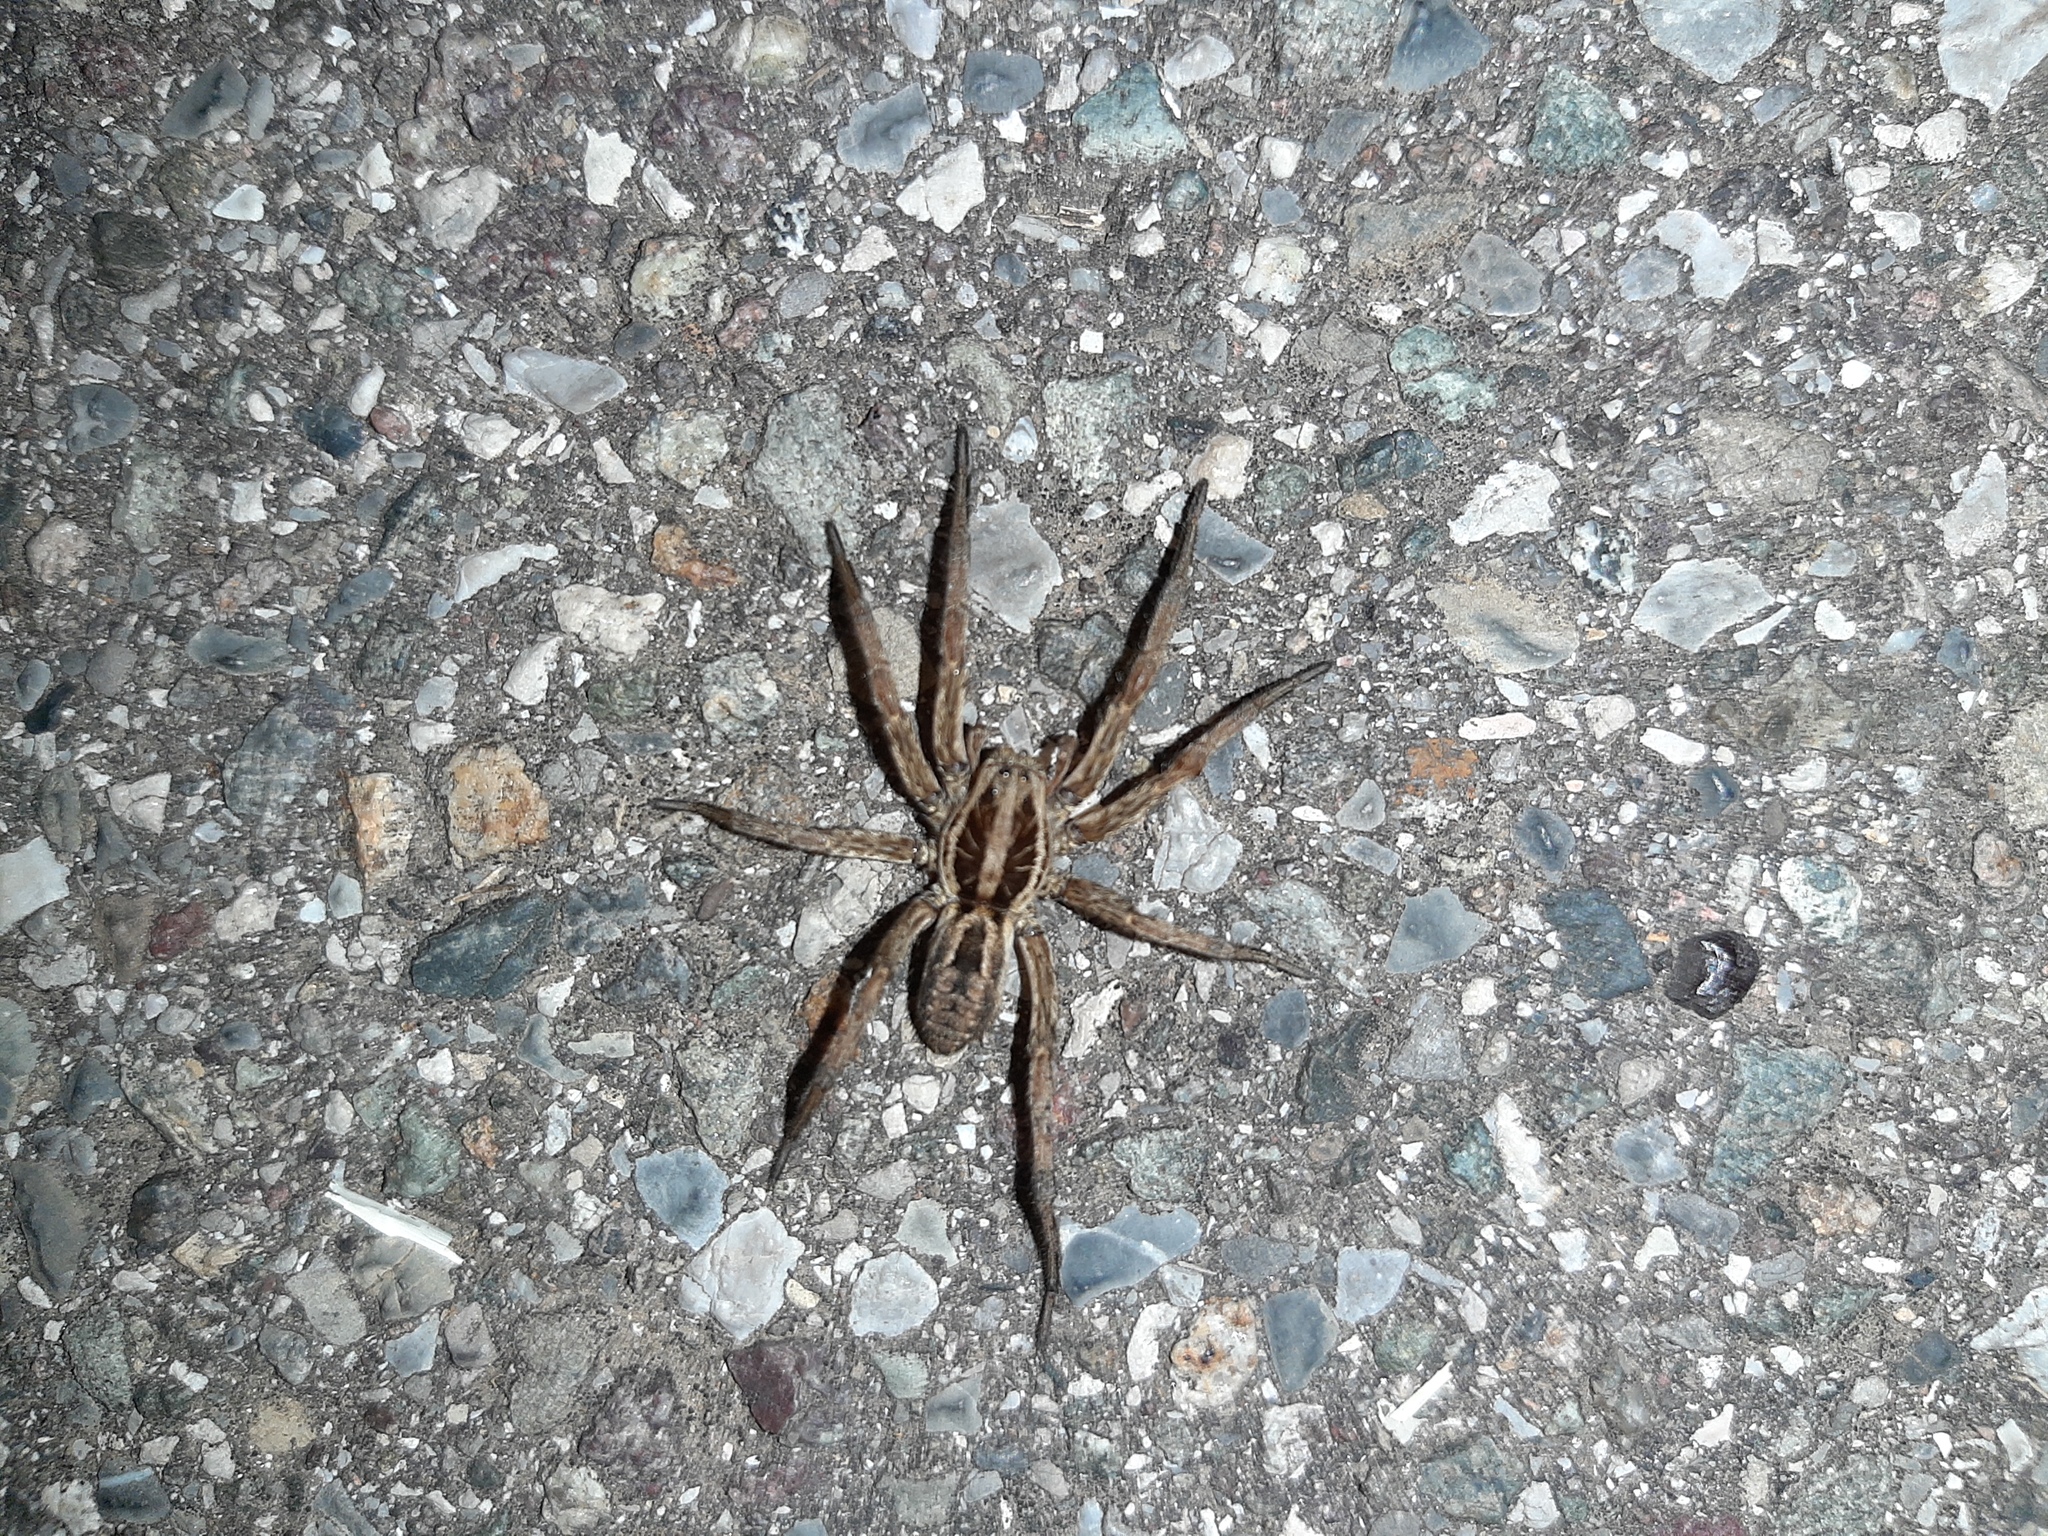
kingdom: Animalia
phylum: Arthropoda
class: Arachnida
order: Araneae
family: Lycosidae
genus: Hogna
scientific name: Hogna radiata
